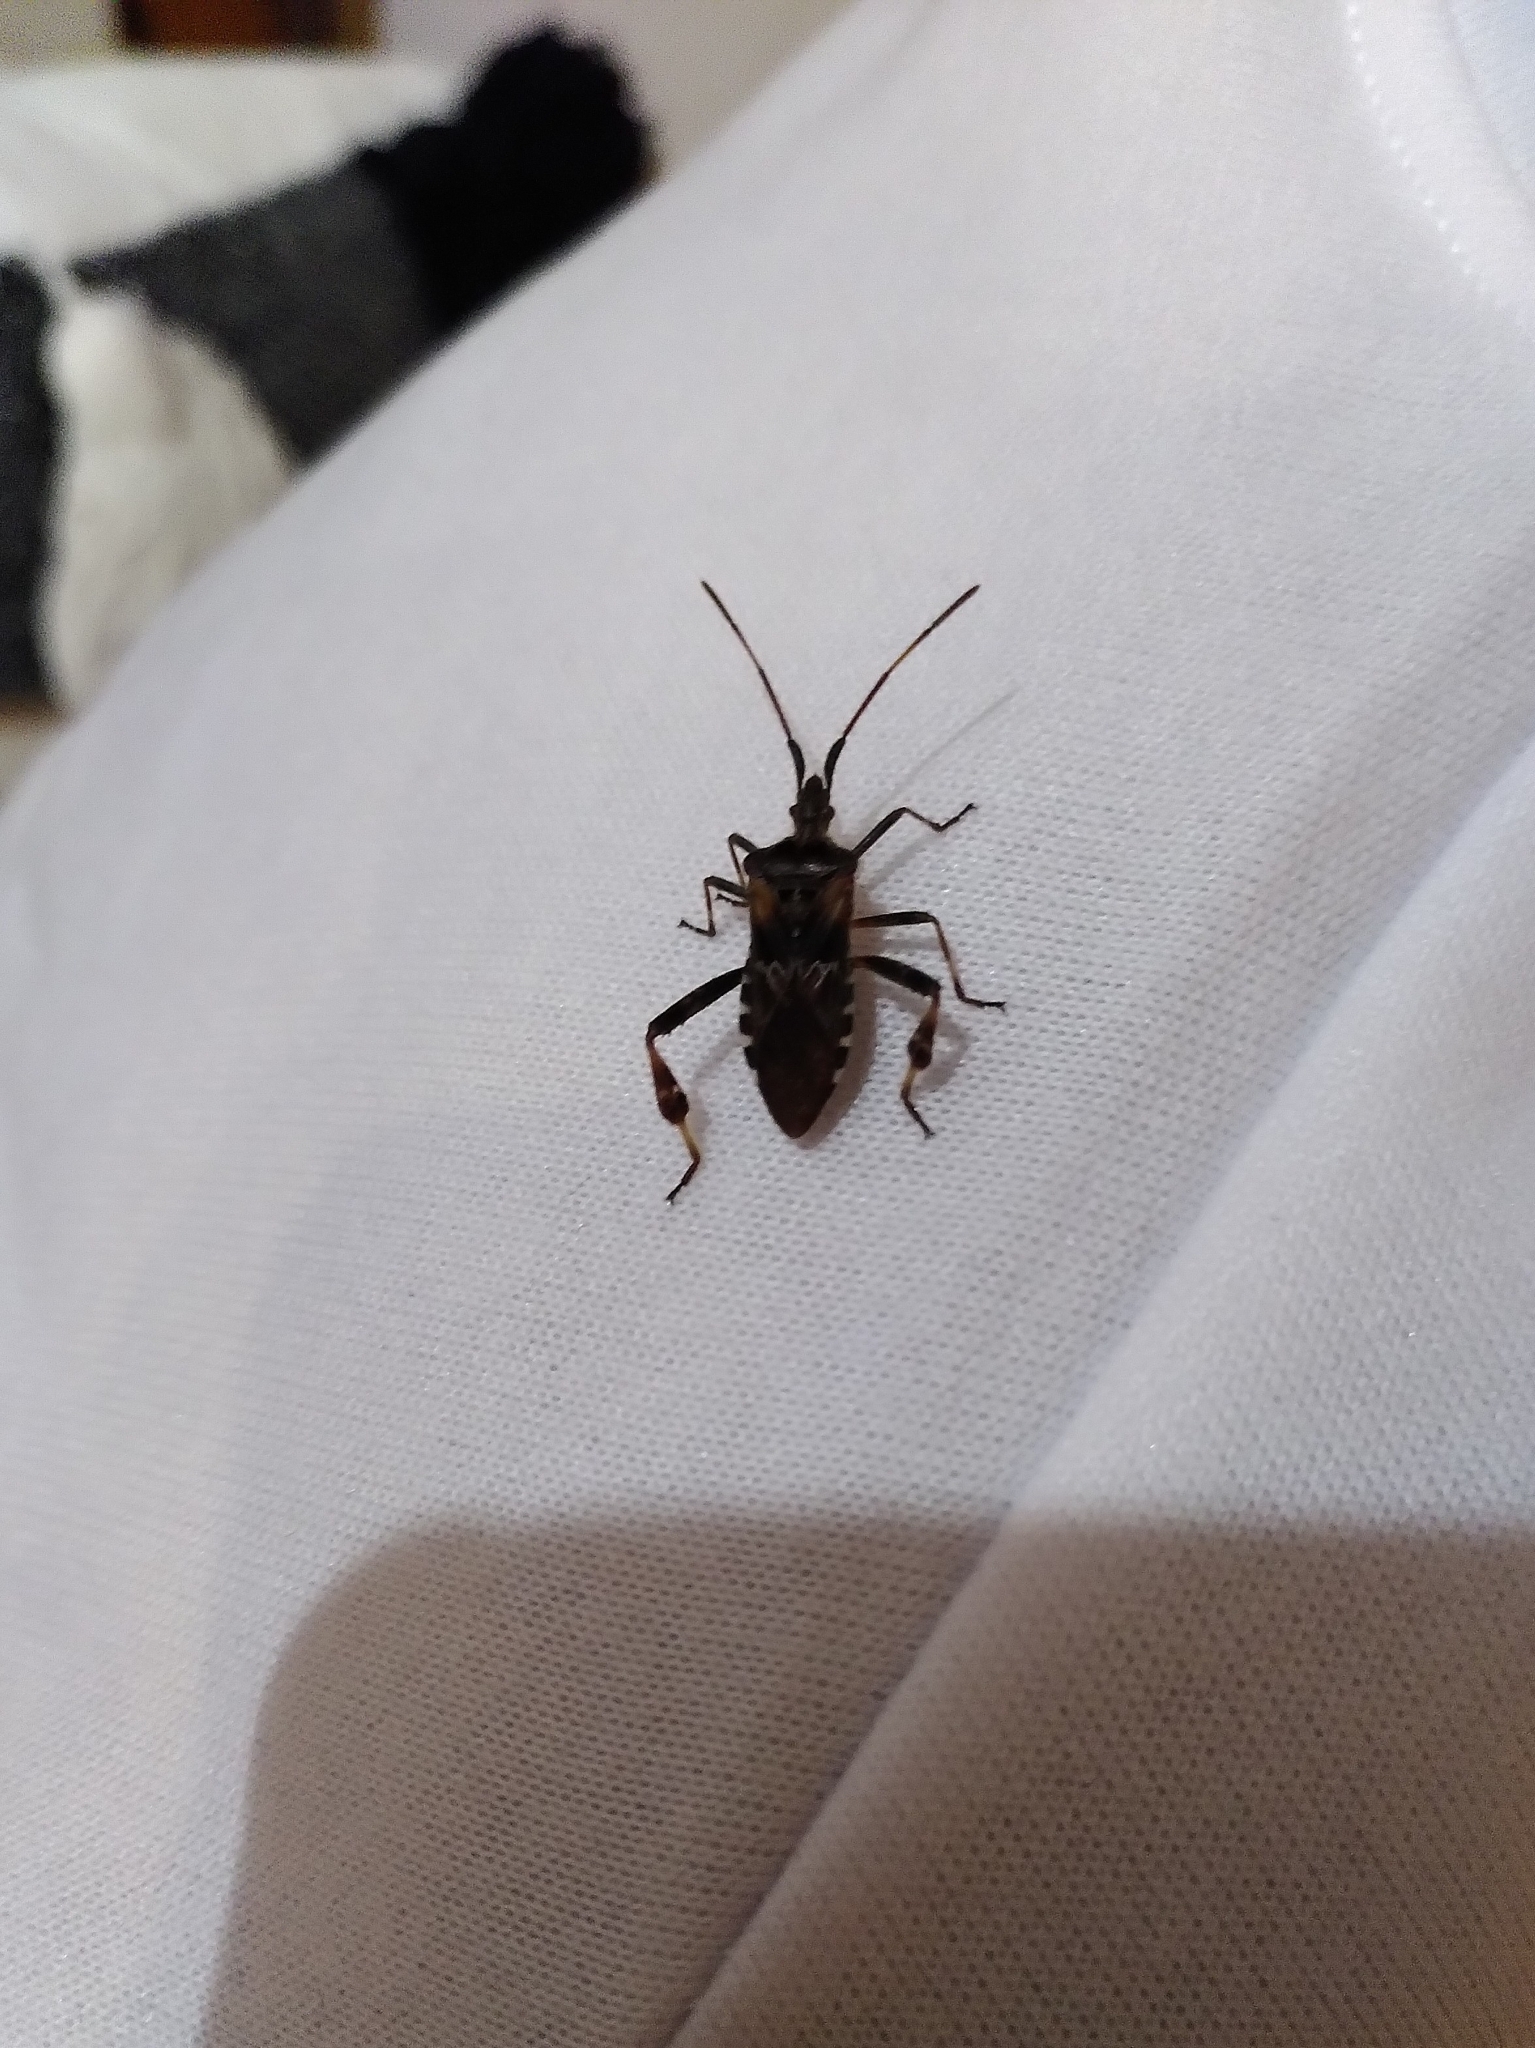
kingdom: Animalia
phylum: Arthropoda
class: Insecta
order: Hemiptera
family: Coreidae
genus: Leptoglossus
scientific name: Leptoglossus occidentalis
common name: Western conifer-seed bug
